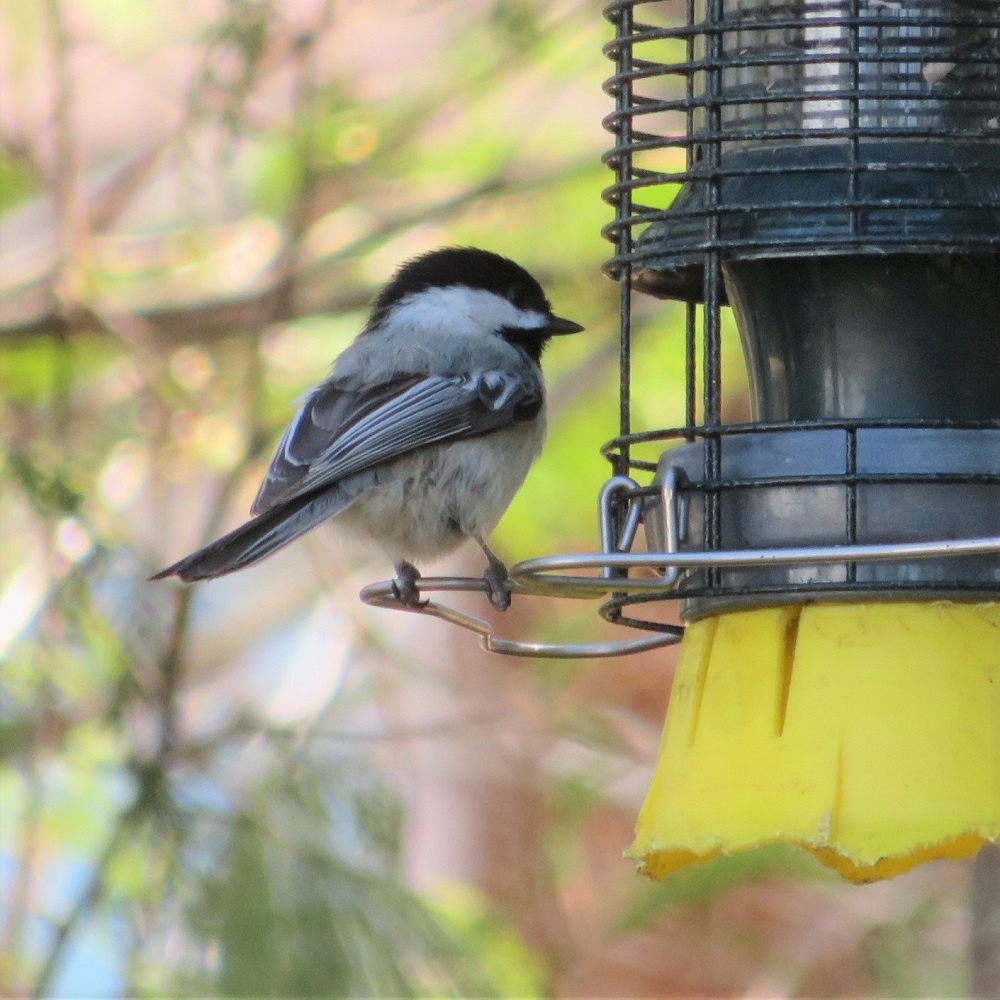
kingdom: Animalia
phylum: Chordata
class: Aves
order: Passeriformes
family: Paridae
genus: Poecile
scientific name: Poecile atricapillus
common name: Black-capped chickadee
